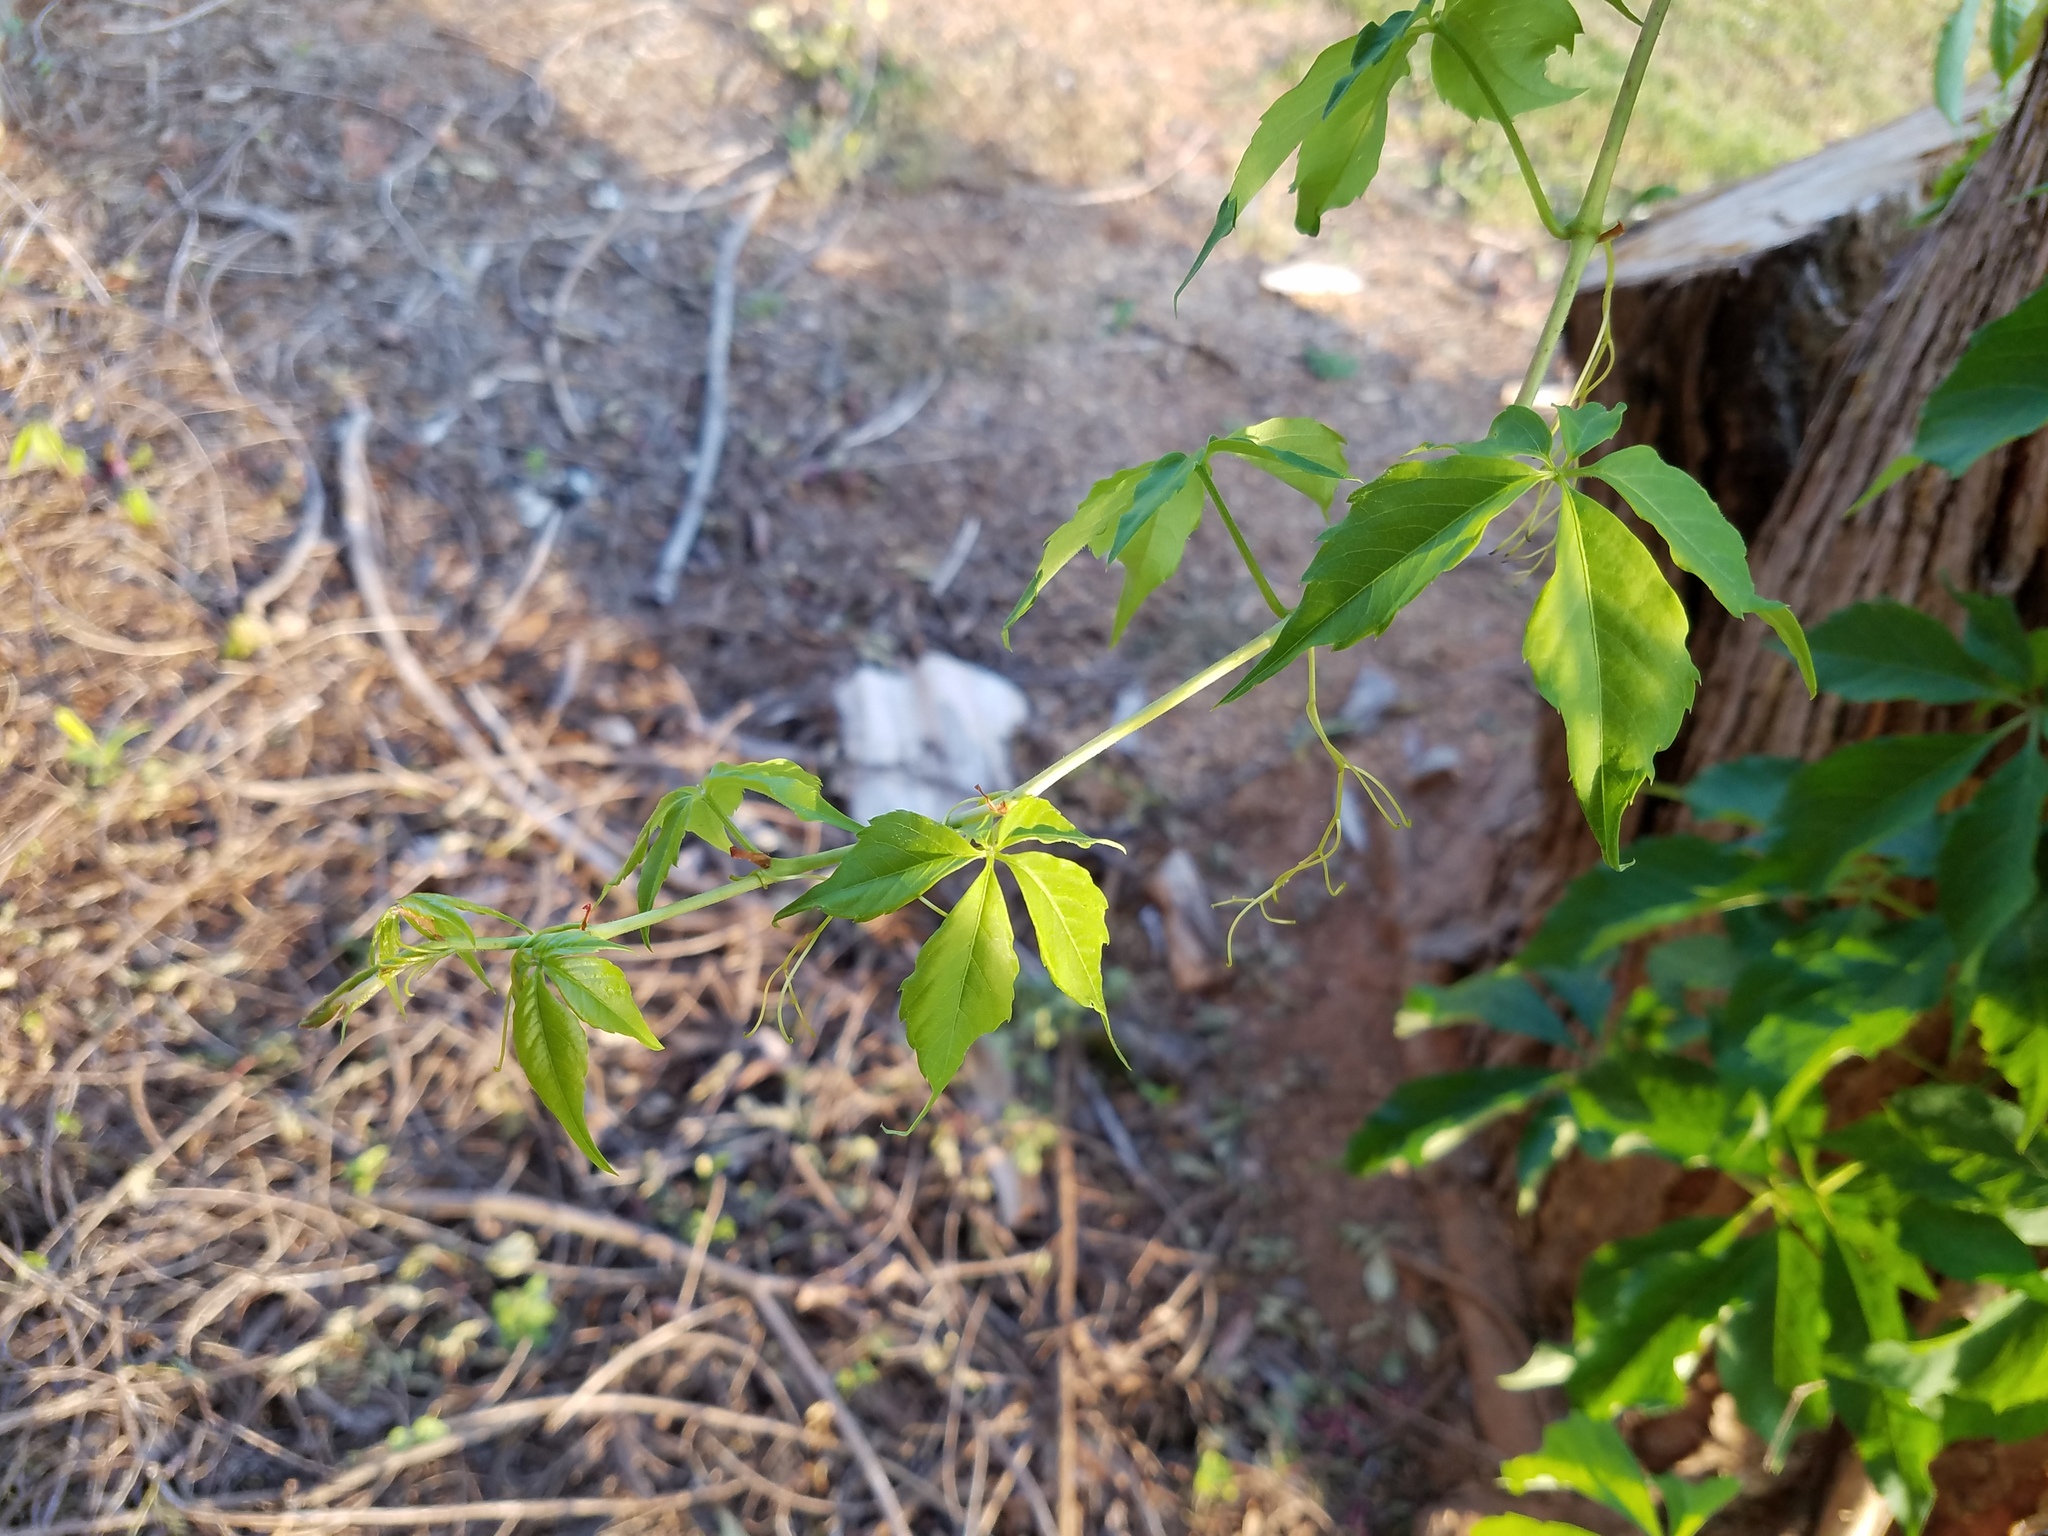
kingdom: Plantae
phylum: Tracheophyta
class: Magnoliopsida
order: Vitales
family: Vitaceae
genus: Parthenocissus
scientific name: Parthenocissus quinquefolia
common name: Virginia-creeper
